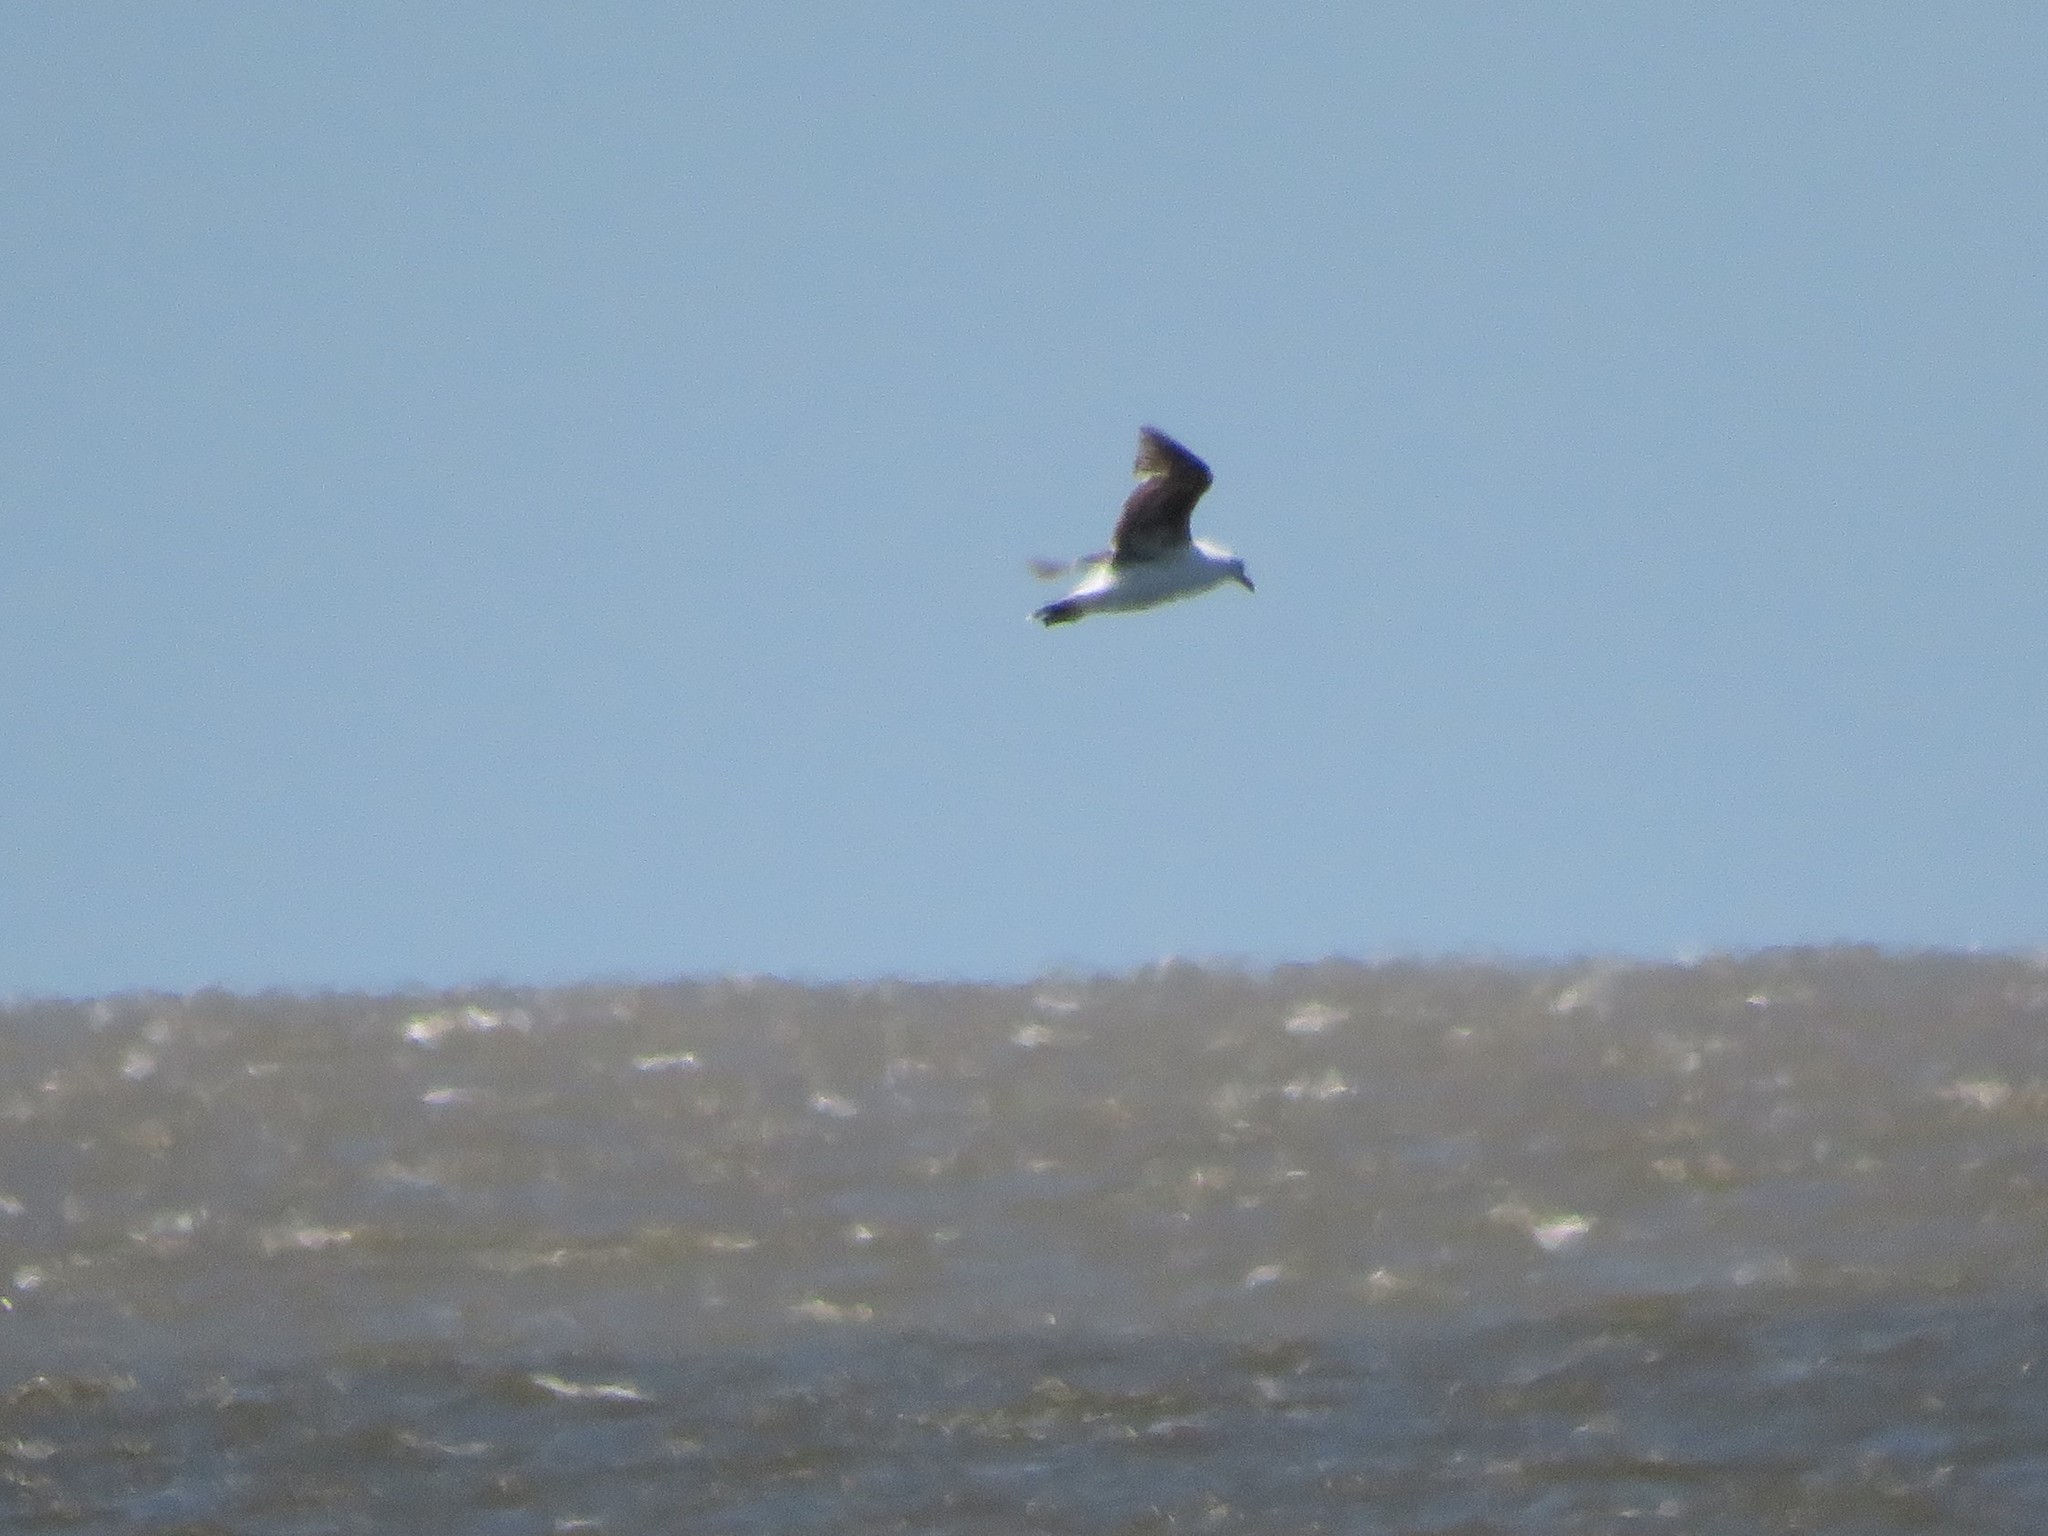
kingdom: Animalia
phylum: Chordata
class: Aves
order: Charadriiformes
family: Laridae
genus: Larus
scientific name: Larus dominicanus
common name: Kelp gull
